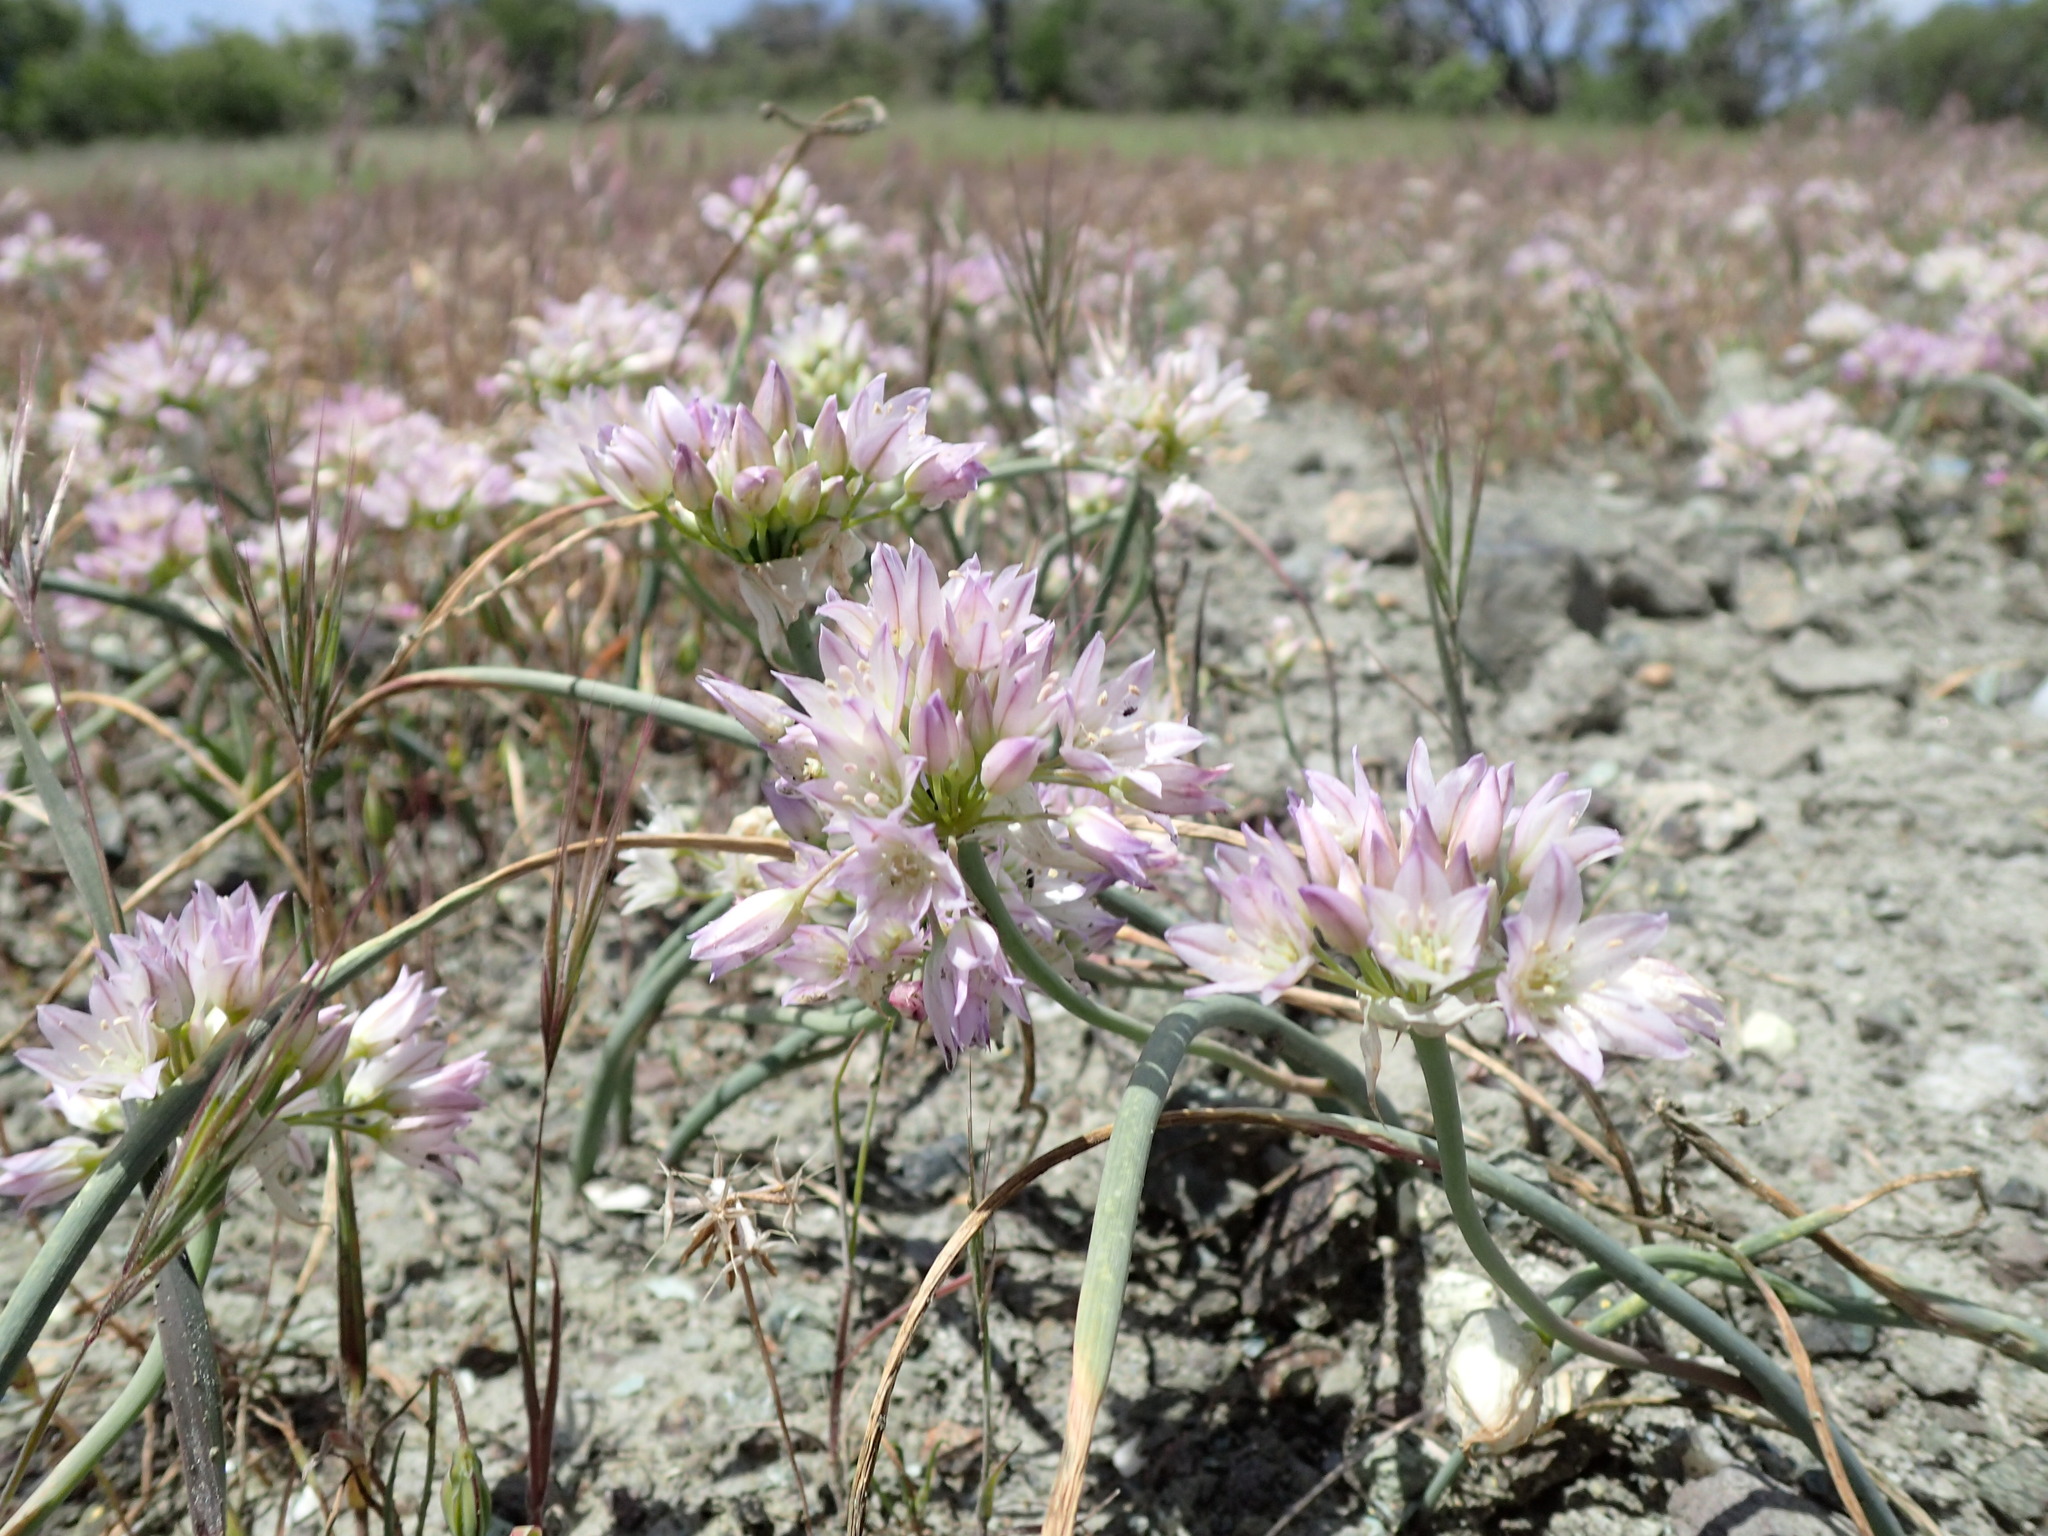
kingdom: Plantae
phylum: Tracheophyta
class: Liliopsida
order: Asparagales
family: Amaryllidaceae
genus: Allium
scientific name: Allium fimbriatum
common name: Fringed onion
